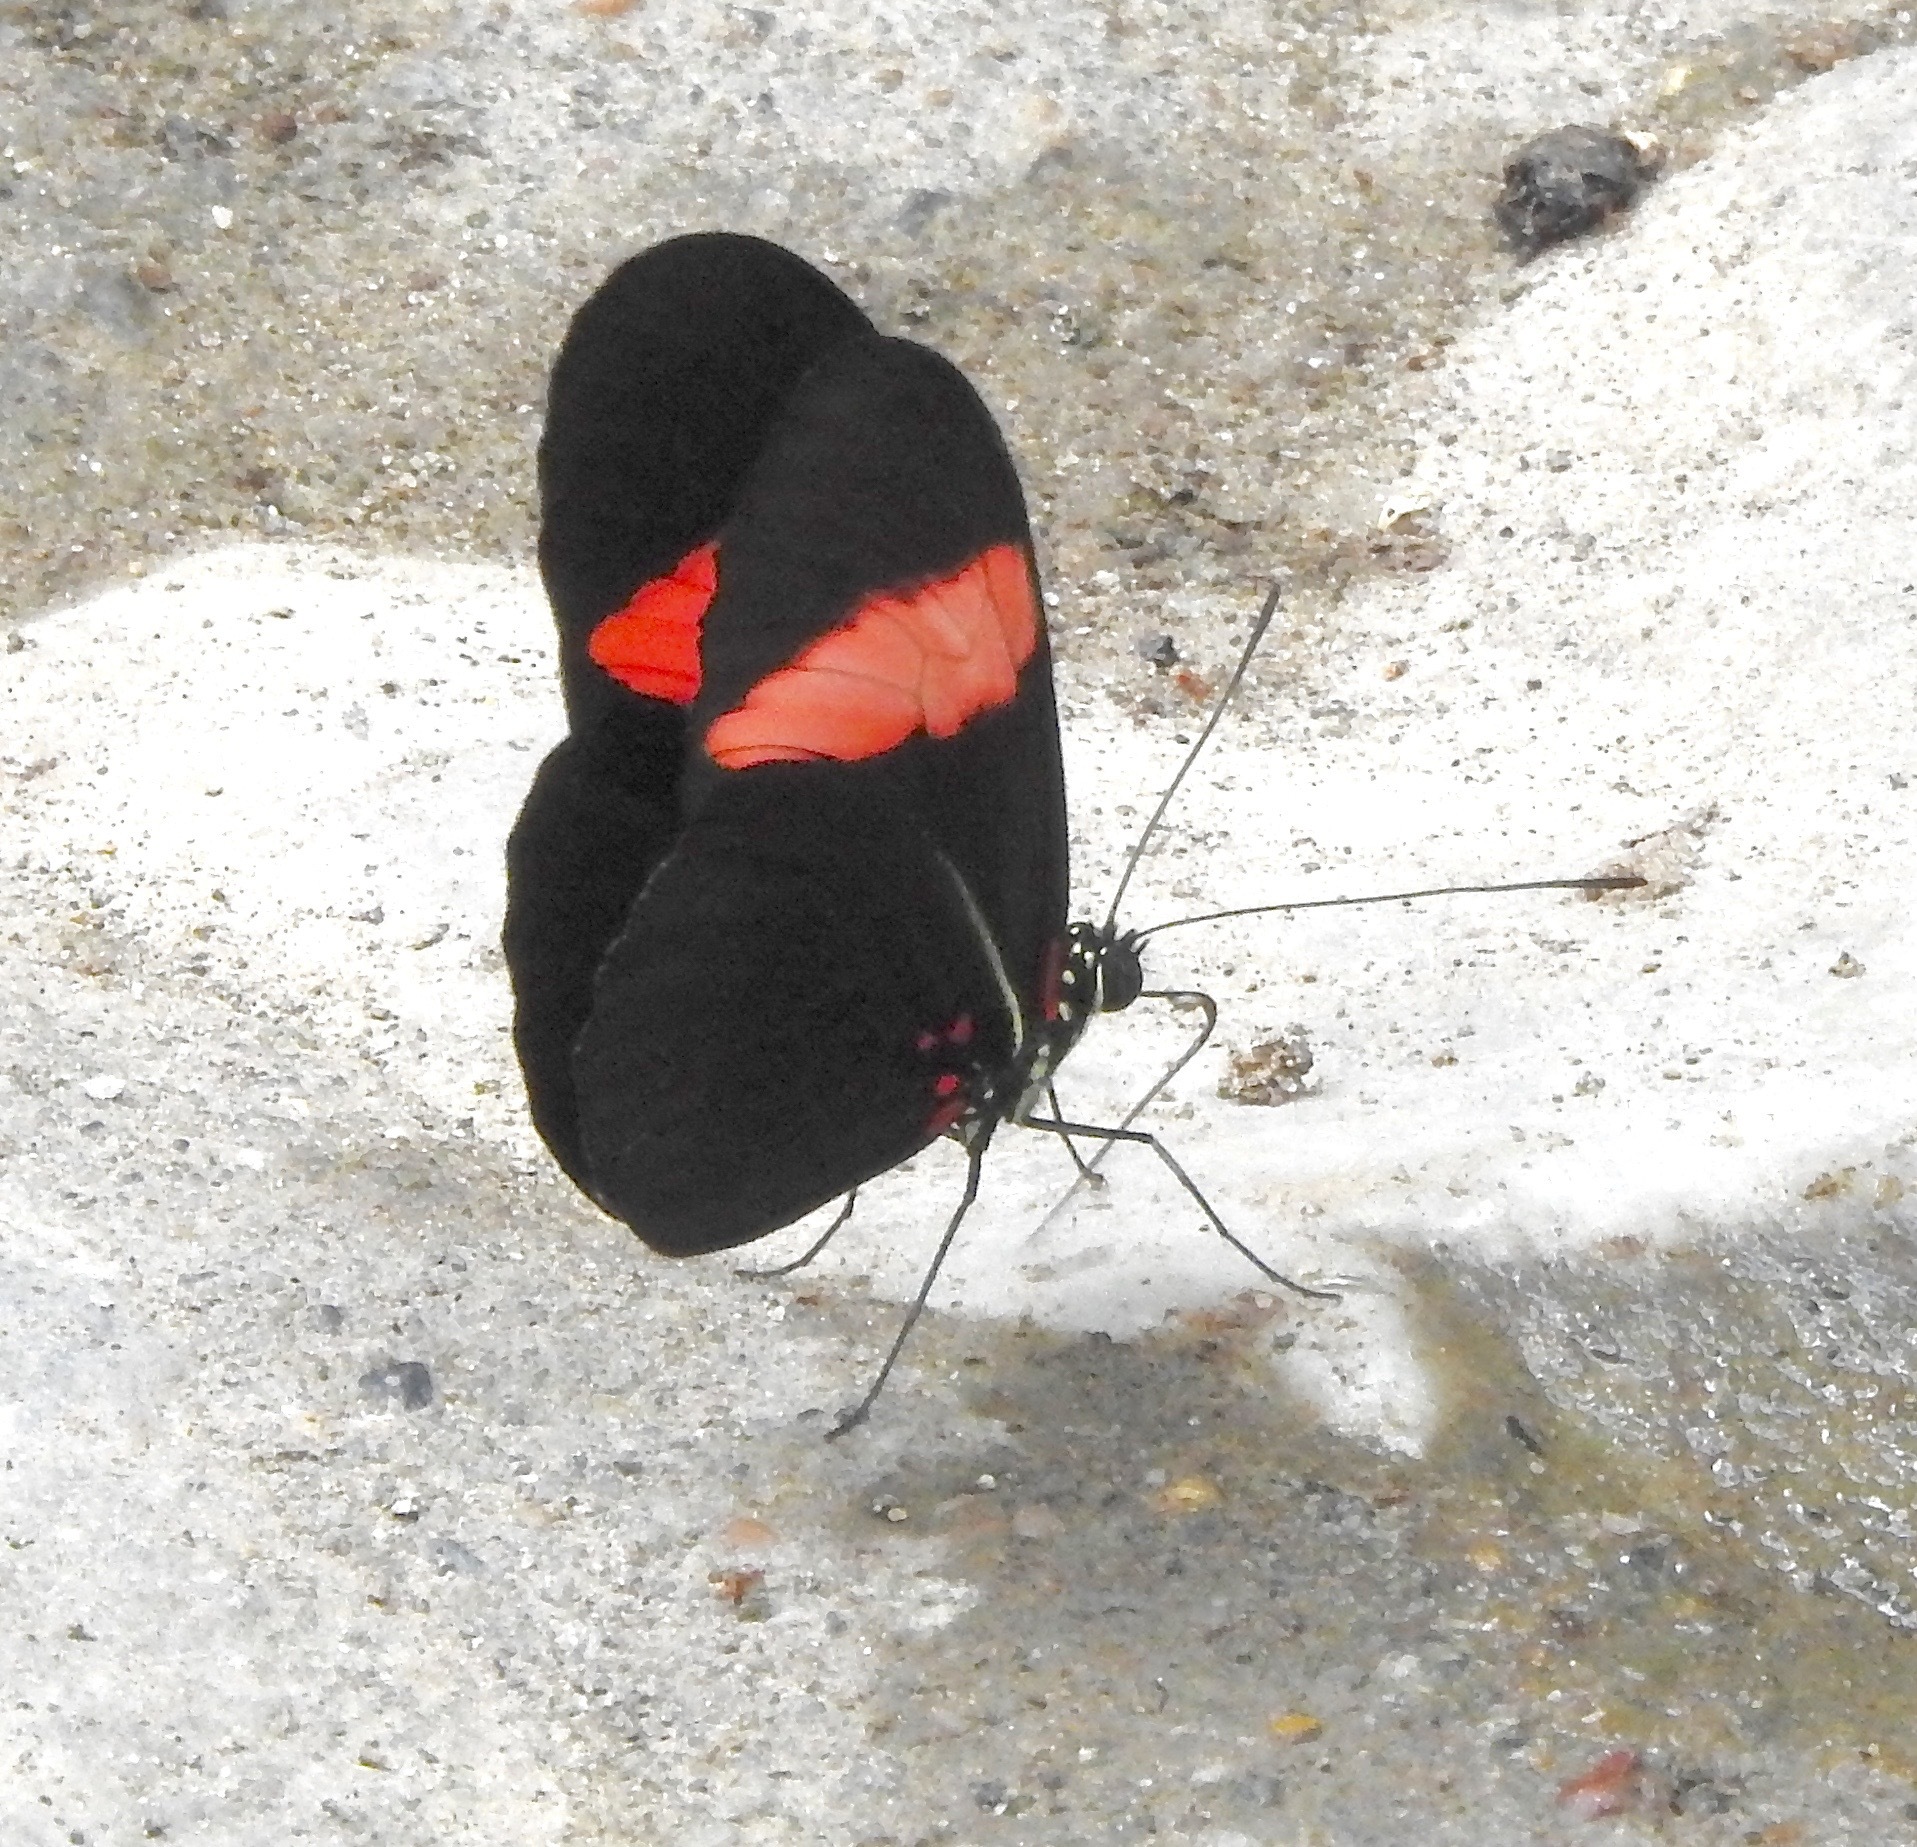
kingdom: Animalia
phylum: Arthropoda
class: Insecta
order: Lepidoptera
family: Nymphalidae
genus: Heliconius
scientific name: Heliconius erato
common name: Common patch longwing
